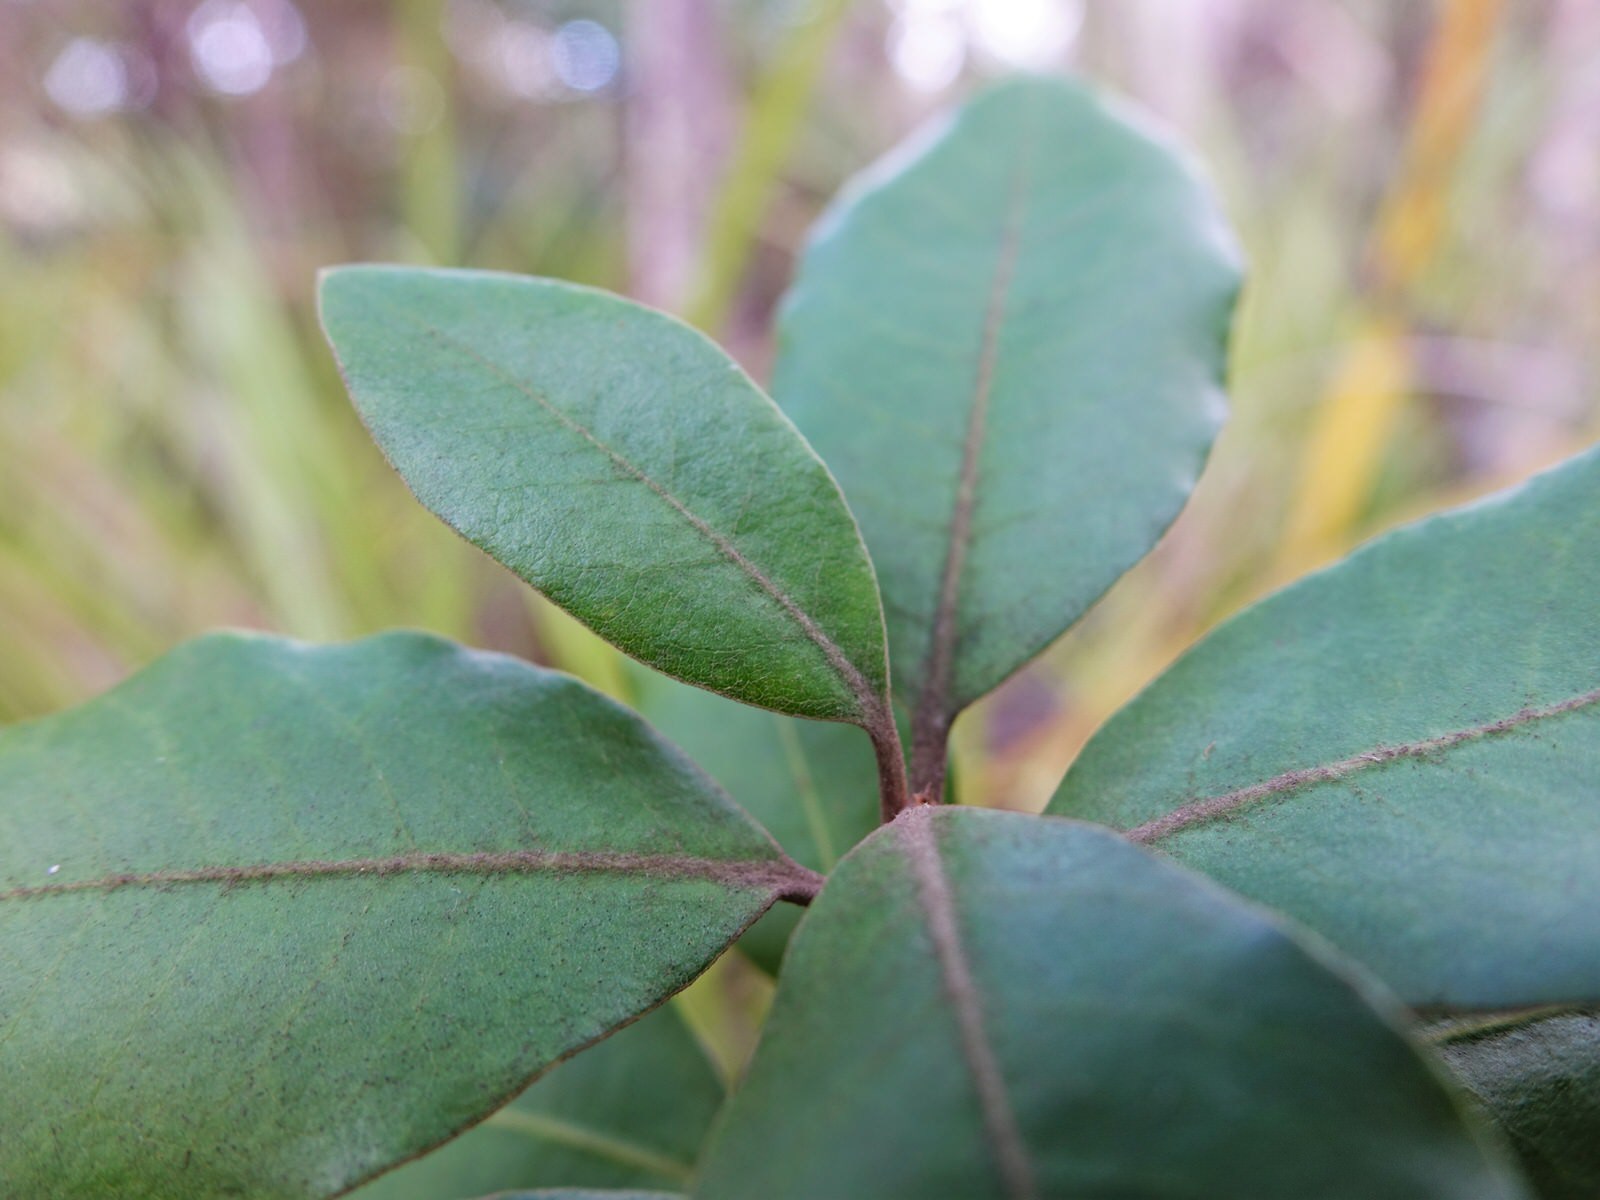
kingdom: Plantae
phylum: Tracheophyta
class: Magnoliopsida
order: Apiales
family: Pittosporaceae
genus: Pittosporum
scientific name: Pittosporum ellipticum
